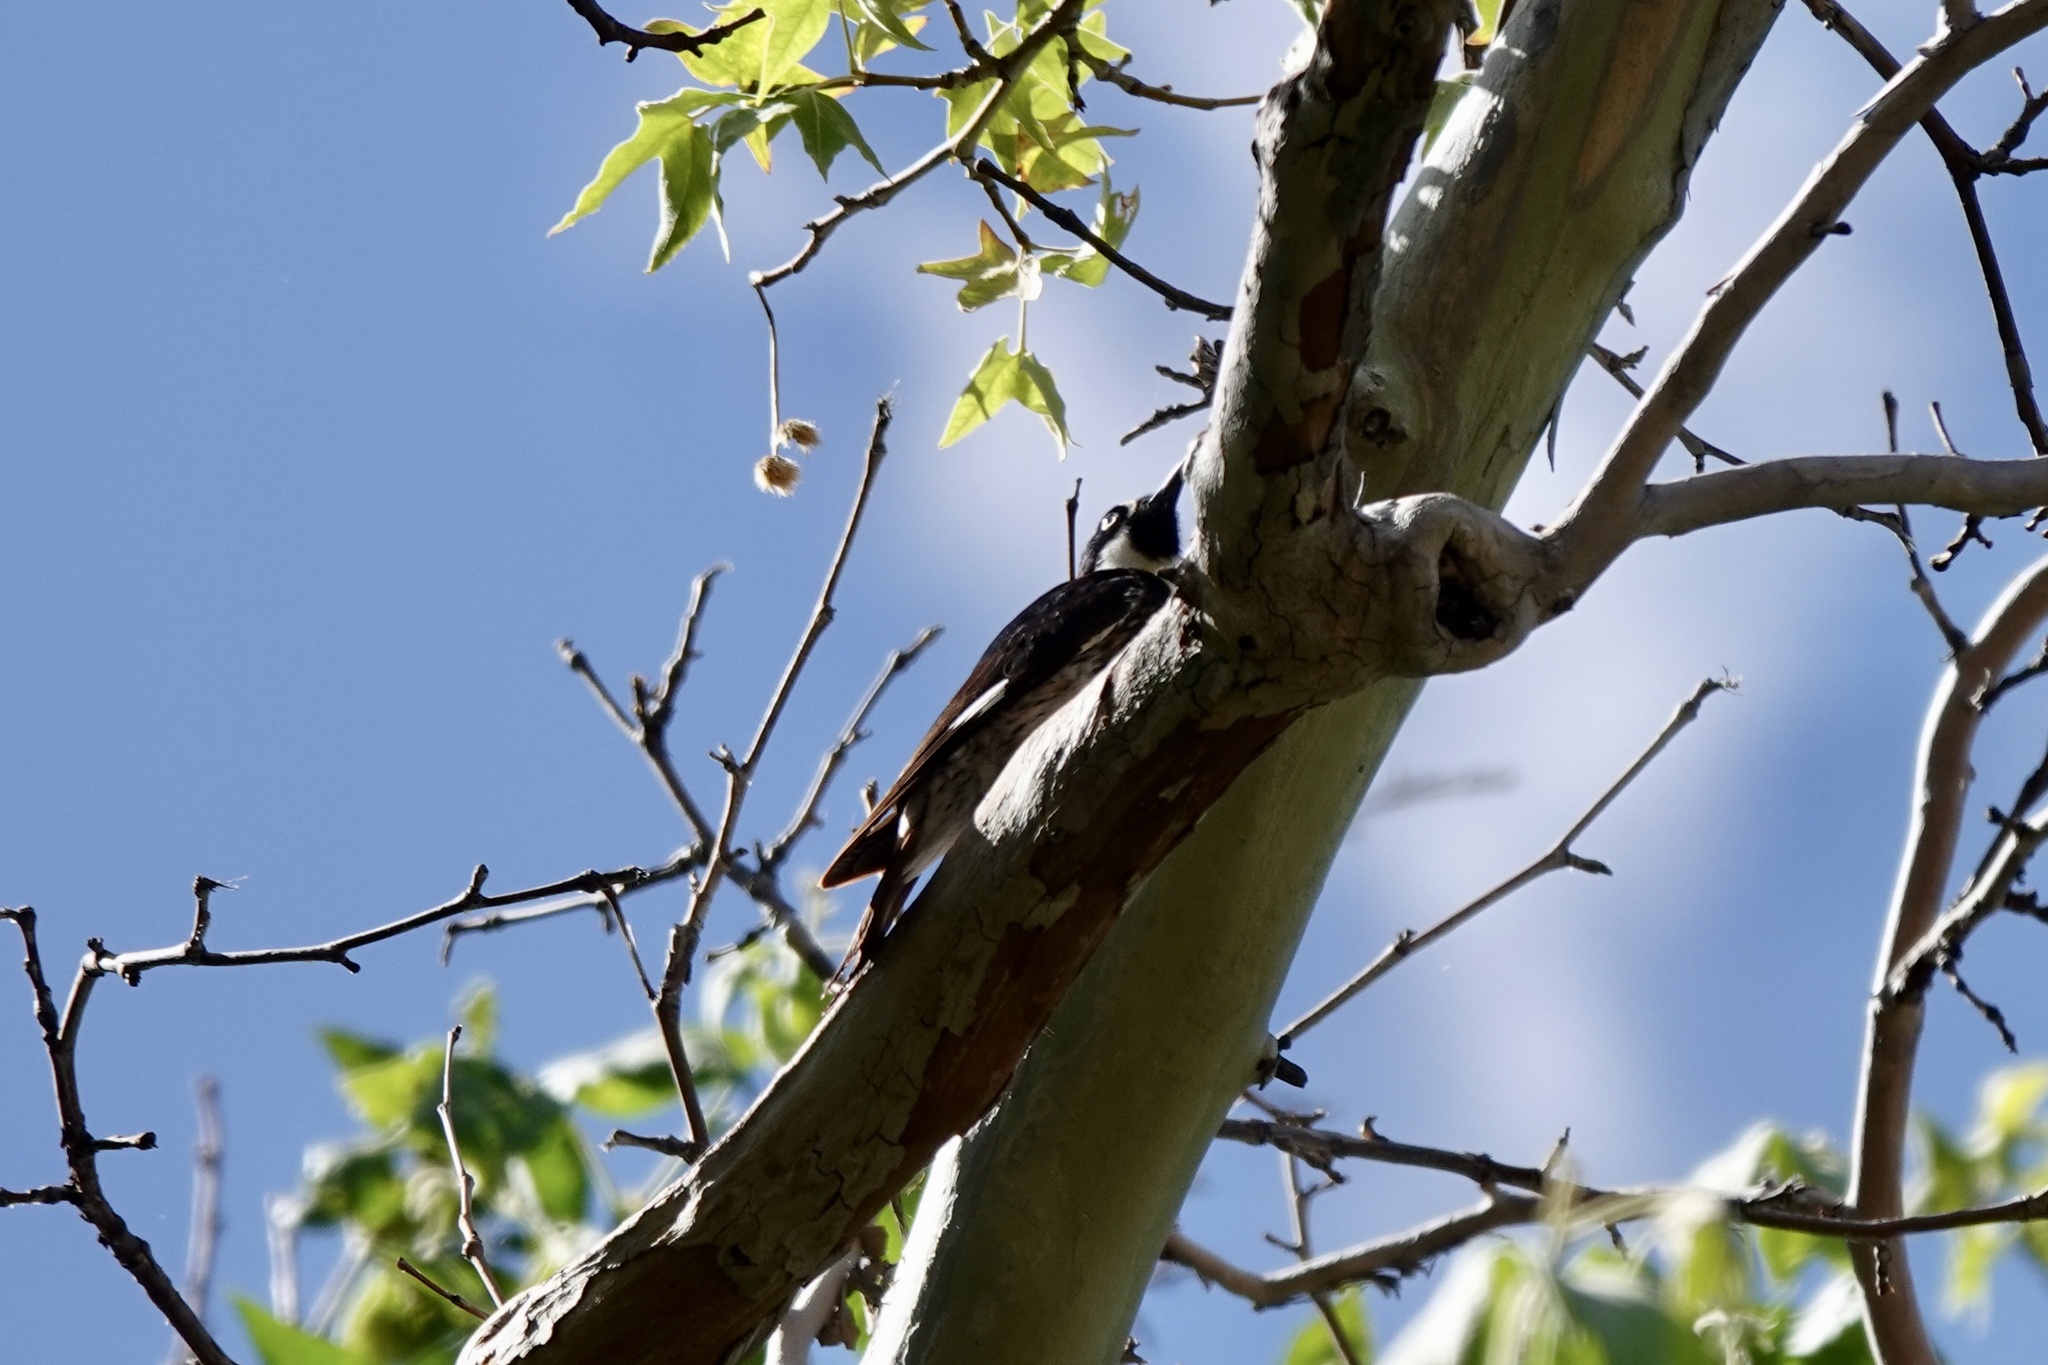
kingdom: Animalia
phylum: Chordata
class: Aves
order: Piciformes
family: Picidae
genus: Melanerpes
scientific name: Melanerpes formicivorus
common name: Acorn woodpecker
